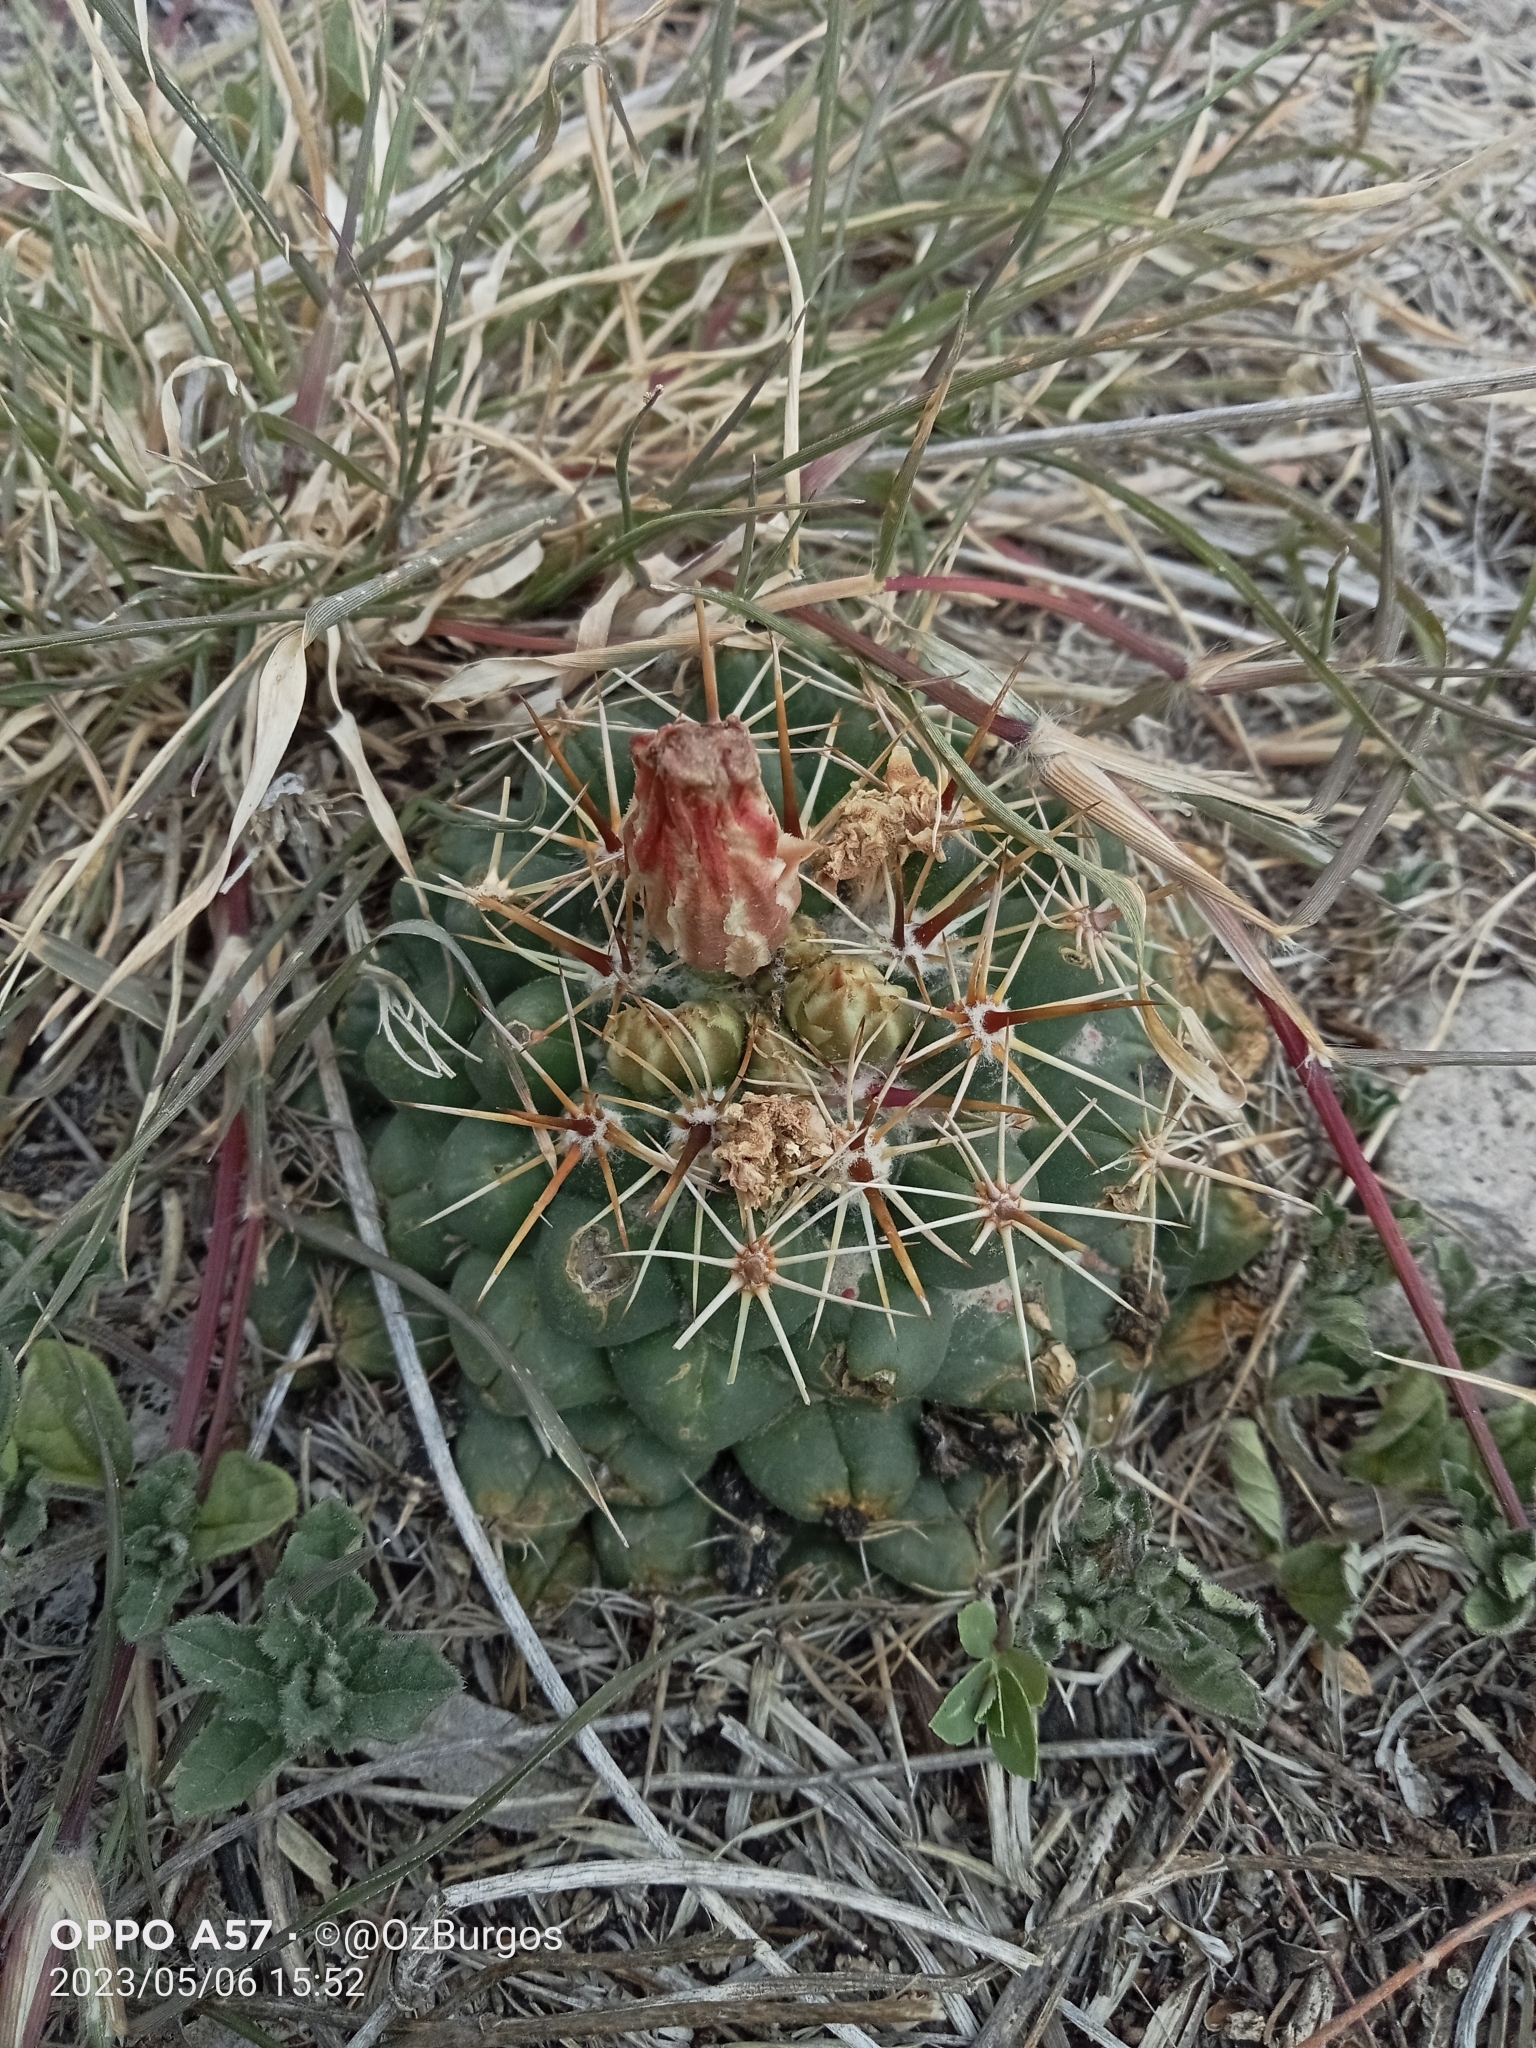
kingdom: Plantae
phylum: Tracheophyta
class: Magnoliopsida
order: Caryophyllales
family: Cactaceae
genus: Coryphantha
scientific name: Coryphantha ottonis
